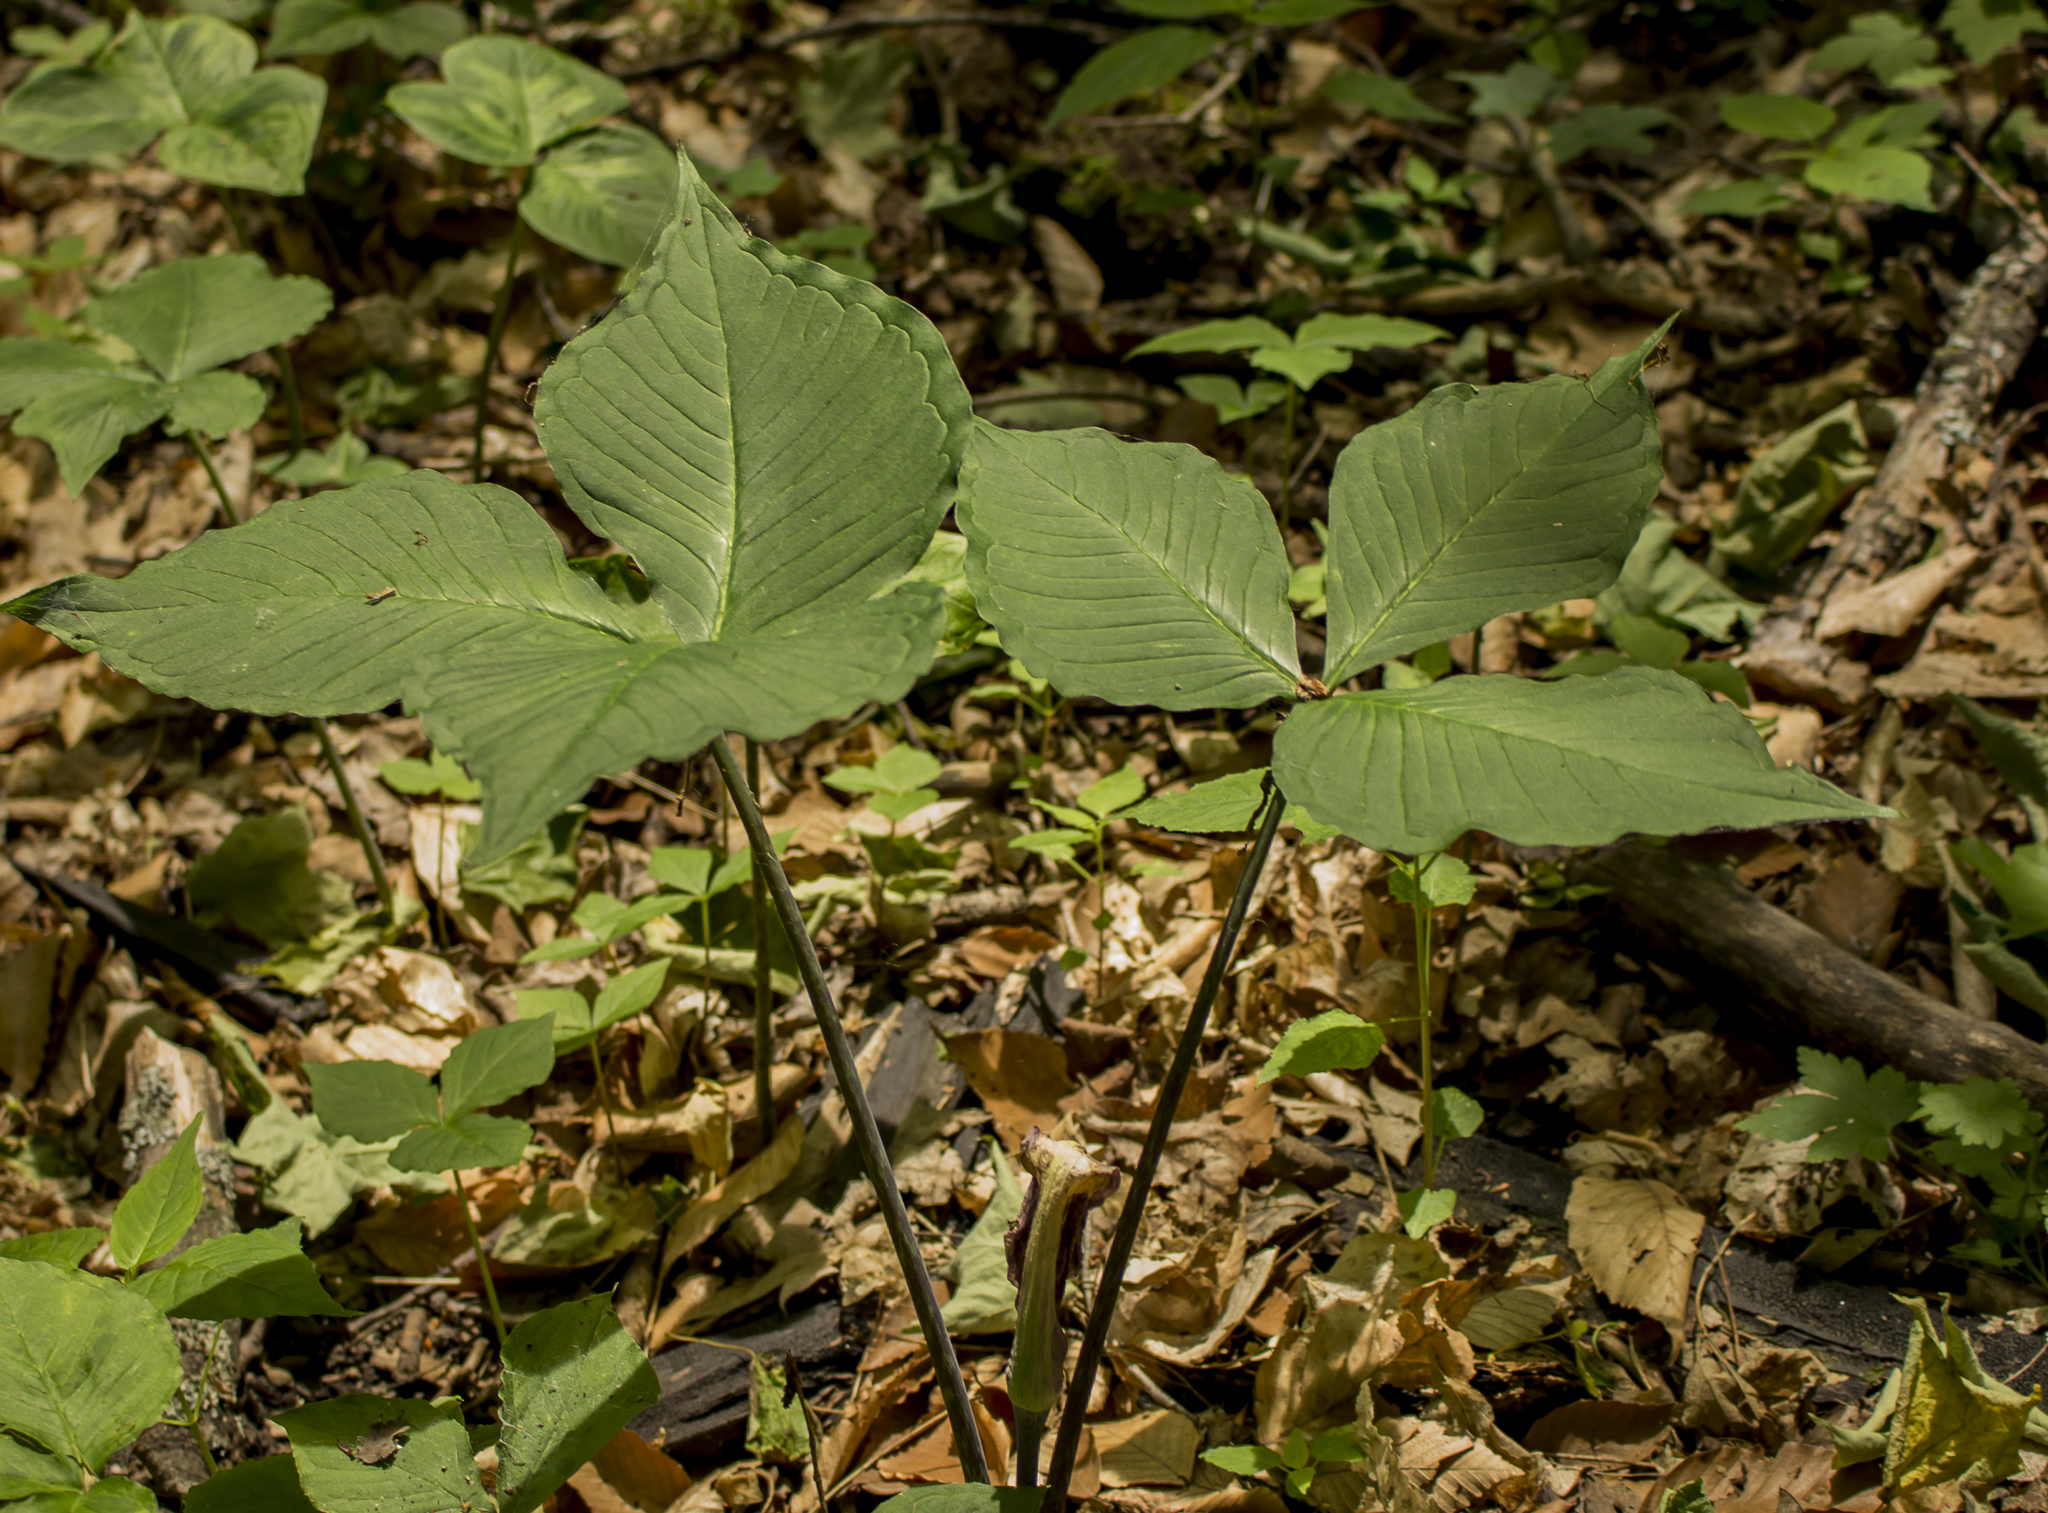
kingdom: Plantae
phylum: Tracheophyta
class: Liliopsida
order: Alismatales
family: Araceae
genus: Arisaema
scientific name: Arisaema triphyllum
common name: Jack-in-the-pulpit
